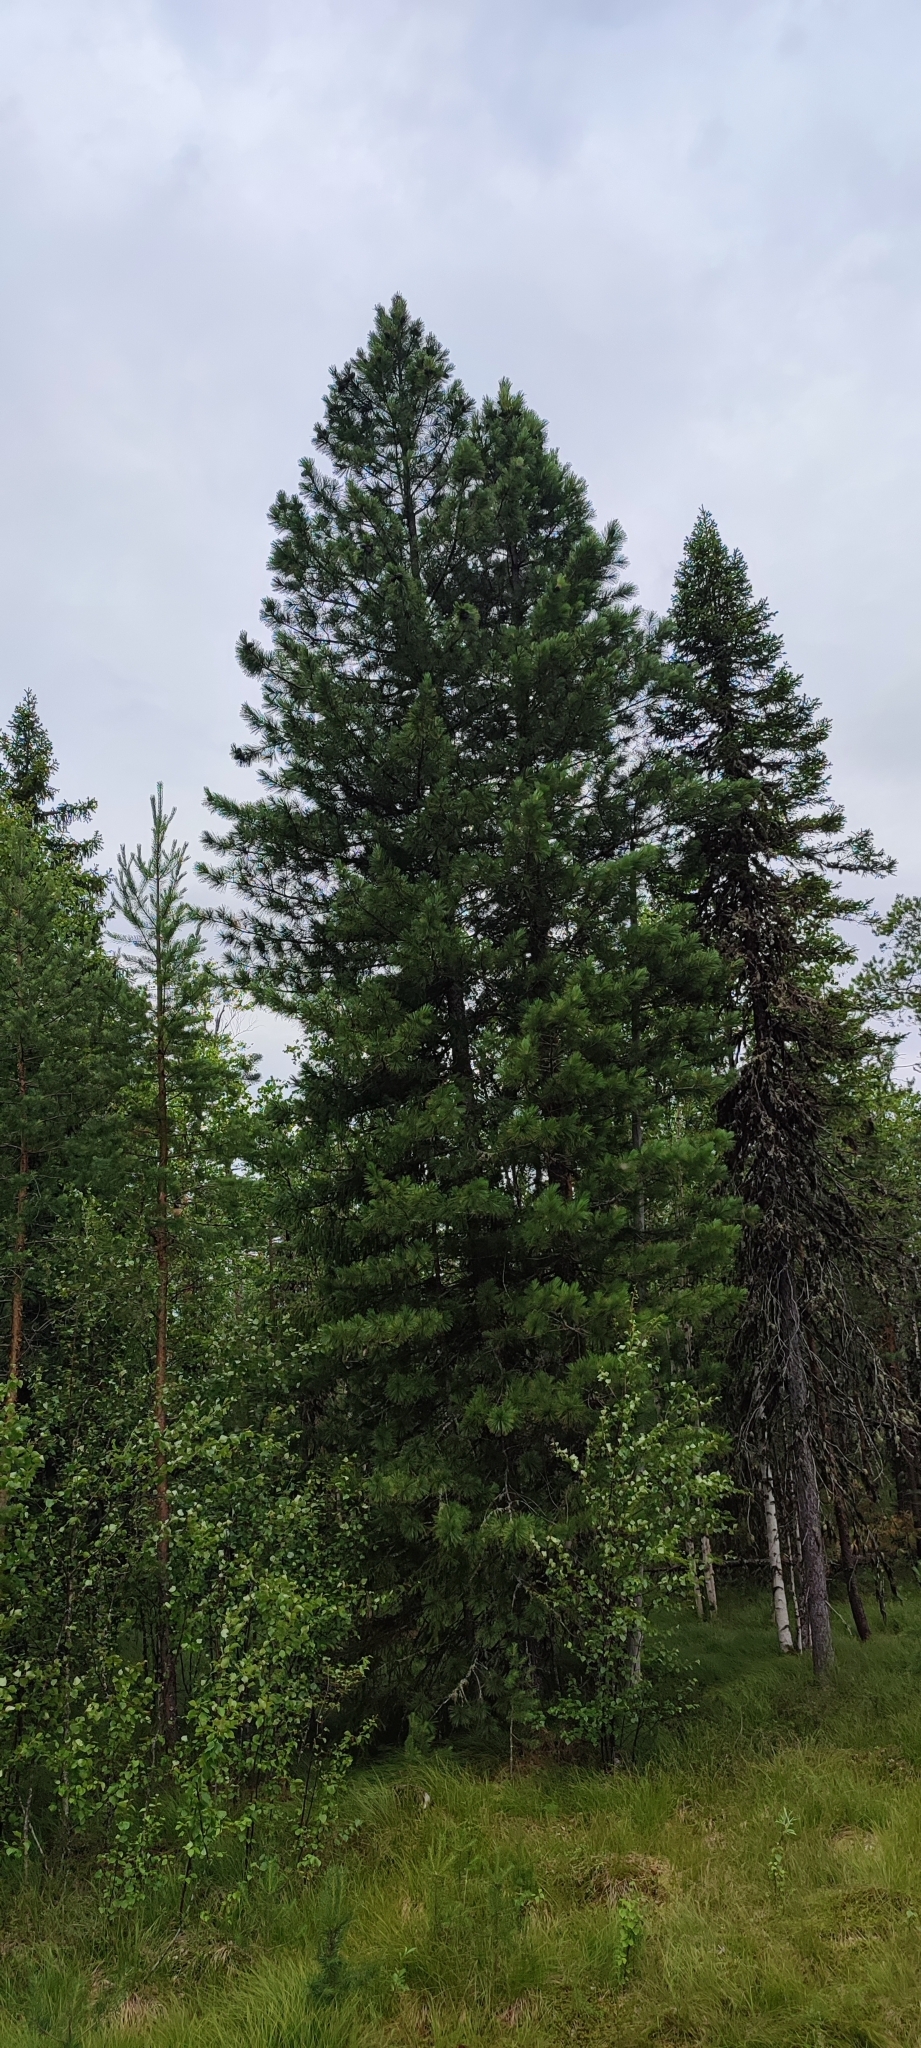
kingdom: Plantae
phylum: Tracheophyta
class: Pinopsida
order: Pinales
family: Pinaceae
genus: Pinus
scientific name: Pinus sibirica
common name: Siberian pine
